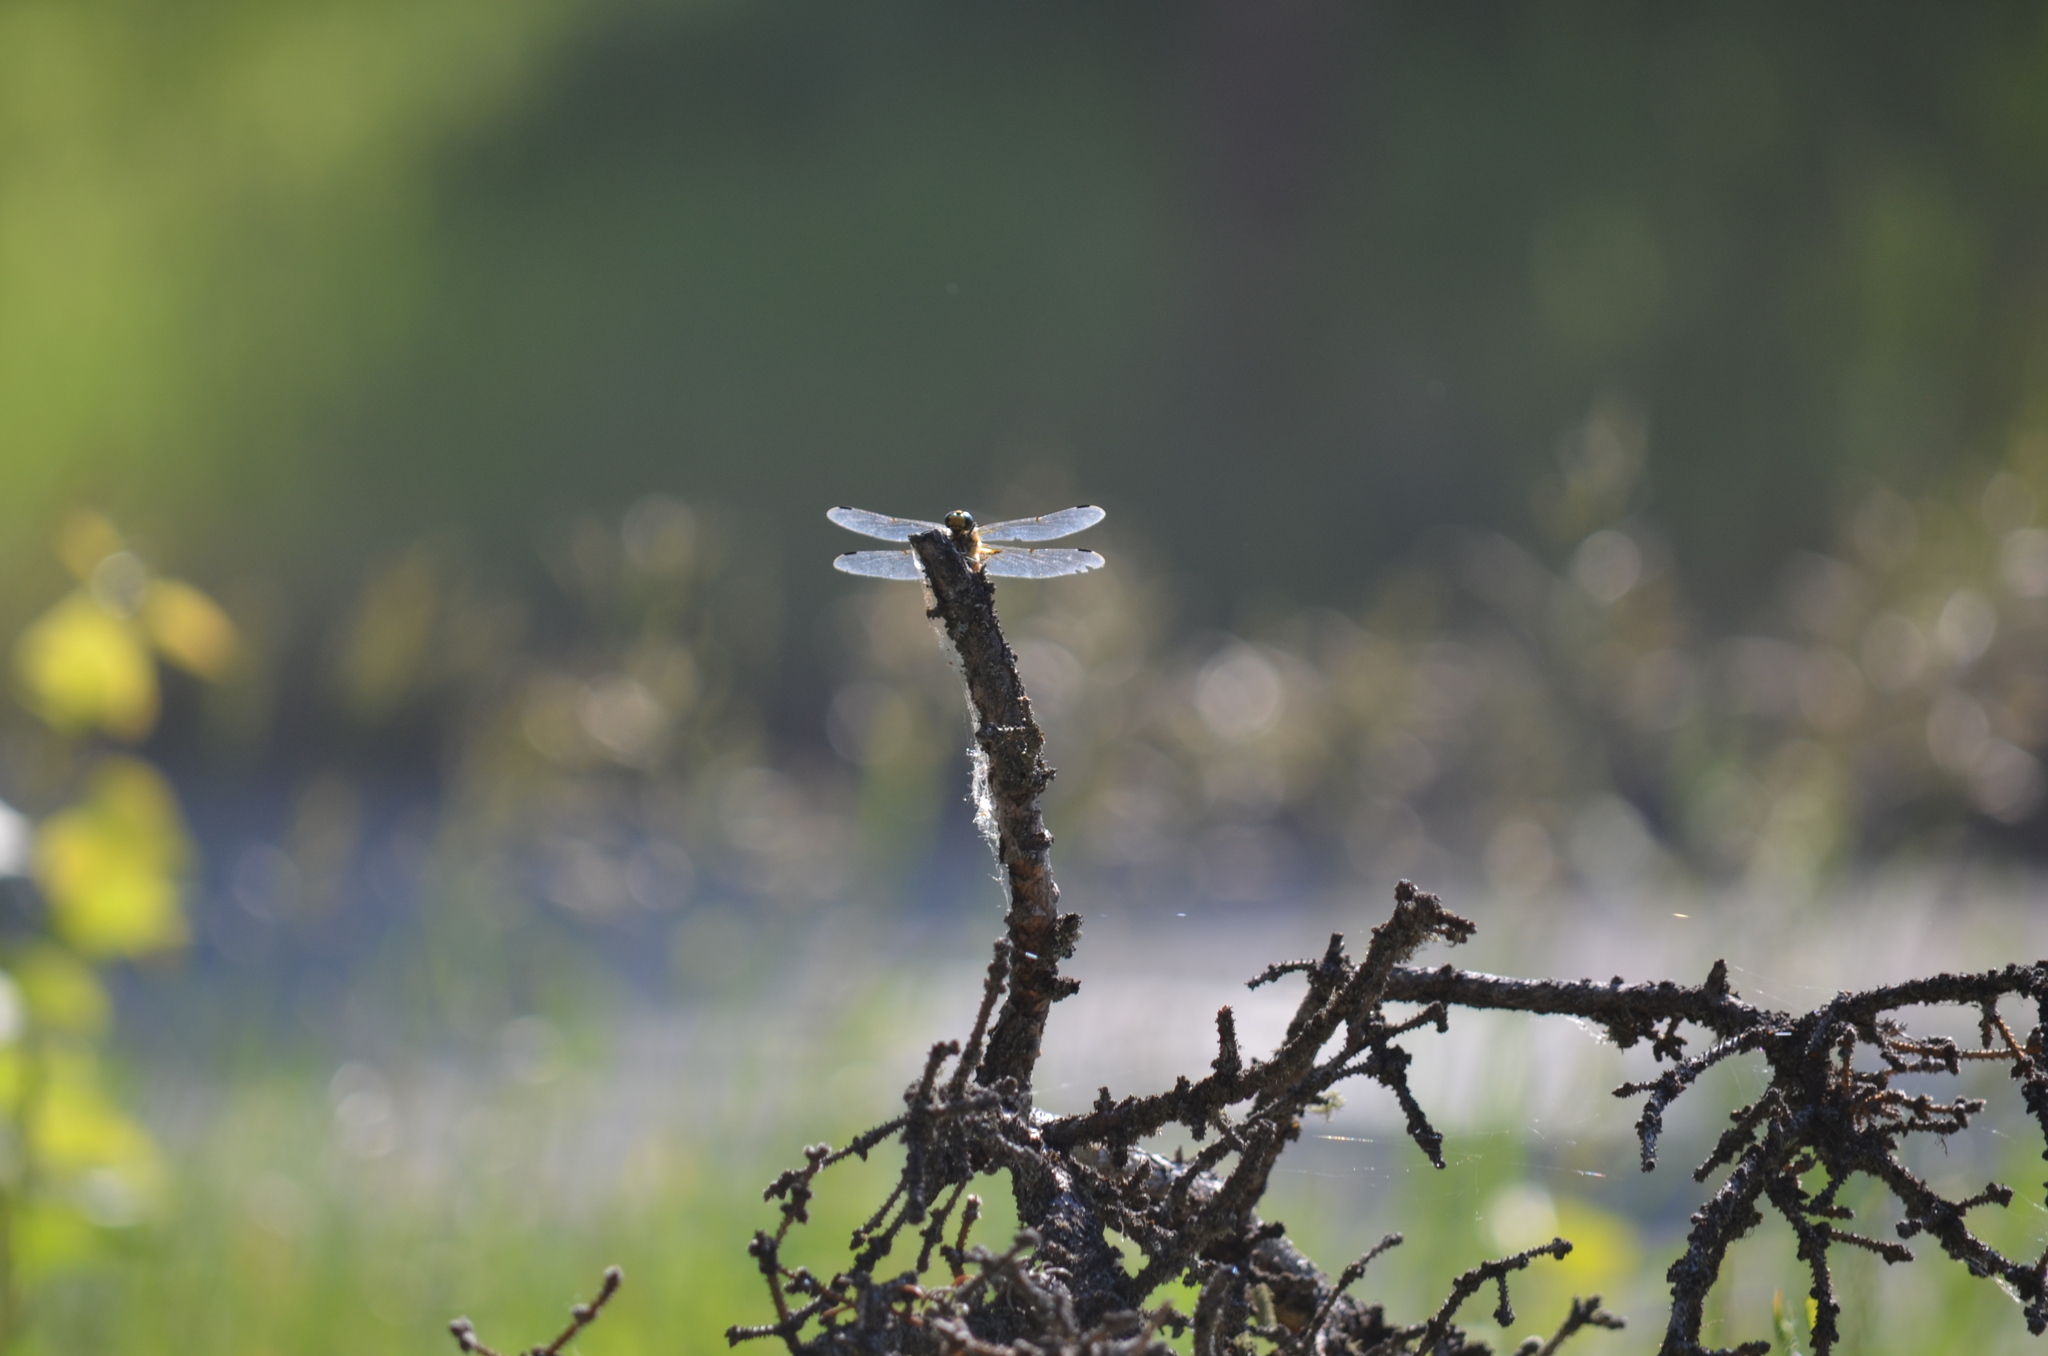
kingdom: Animalia
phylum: Arthropoda
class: Insecta
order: Odonata
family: Libellulidae
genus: Libellula
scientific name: Libellula quadrimaculata
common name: Four-spotted chaser
